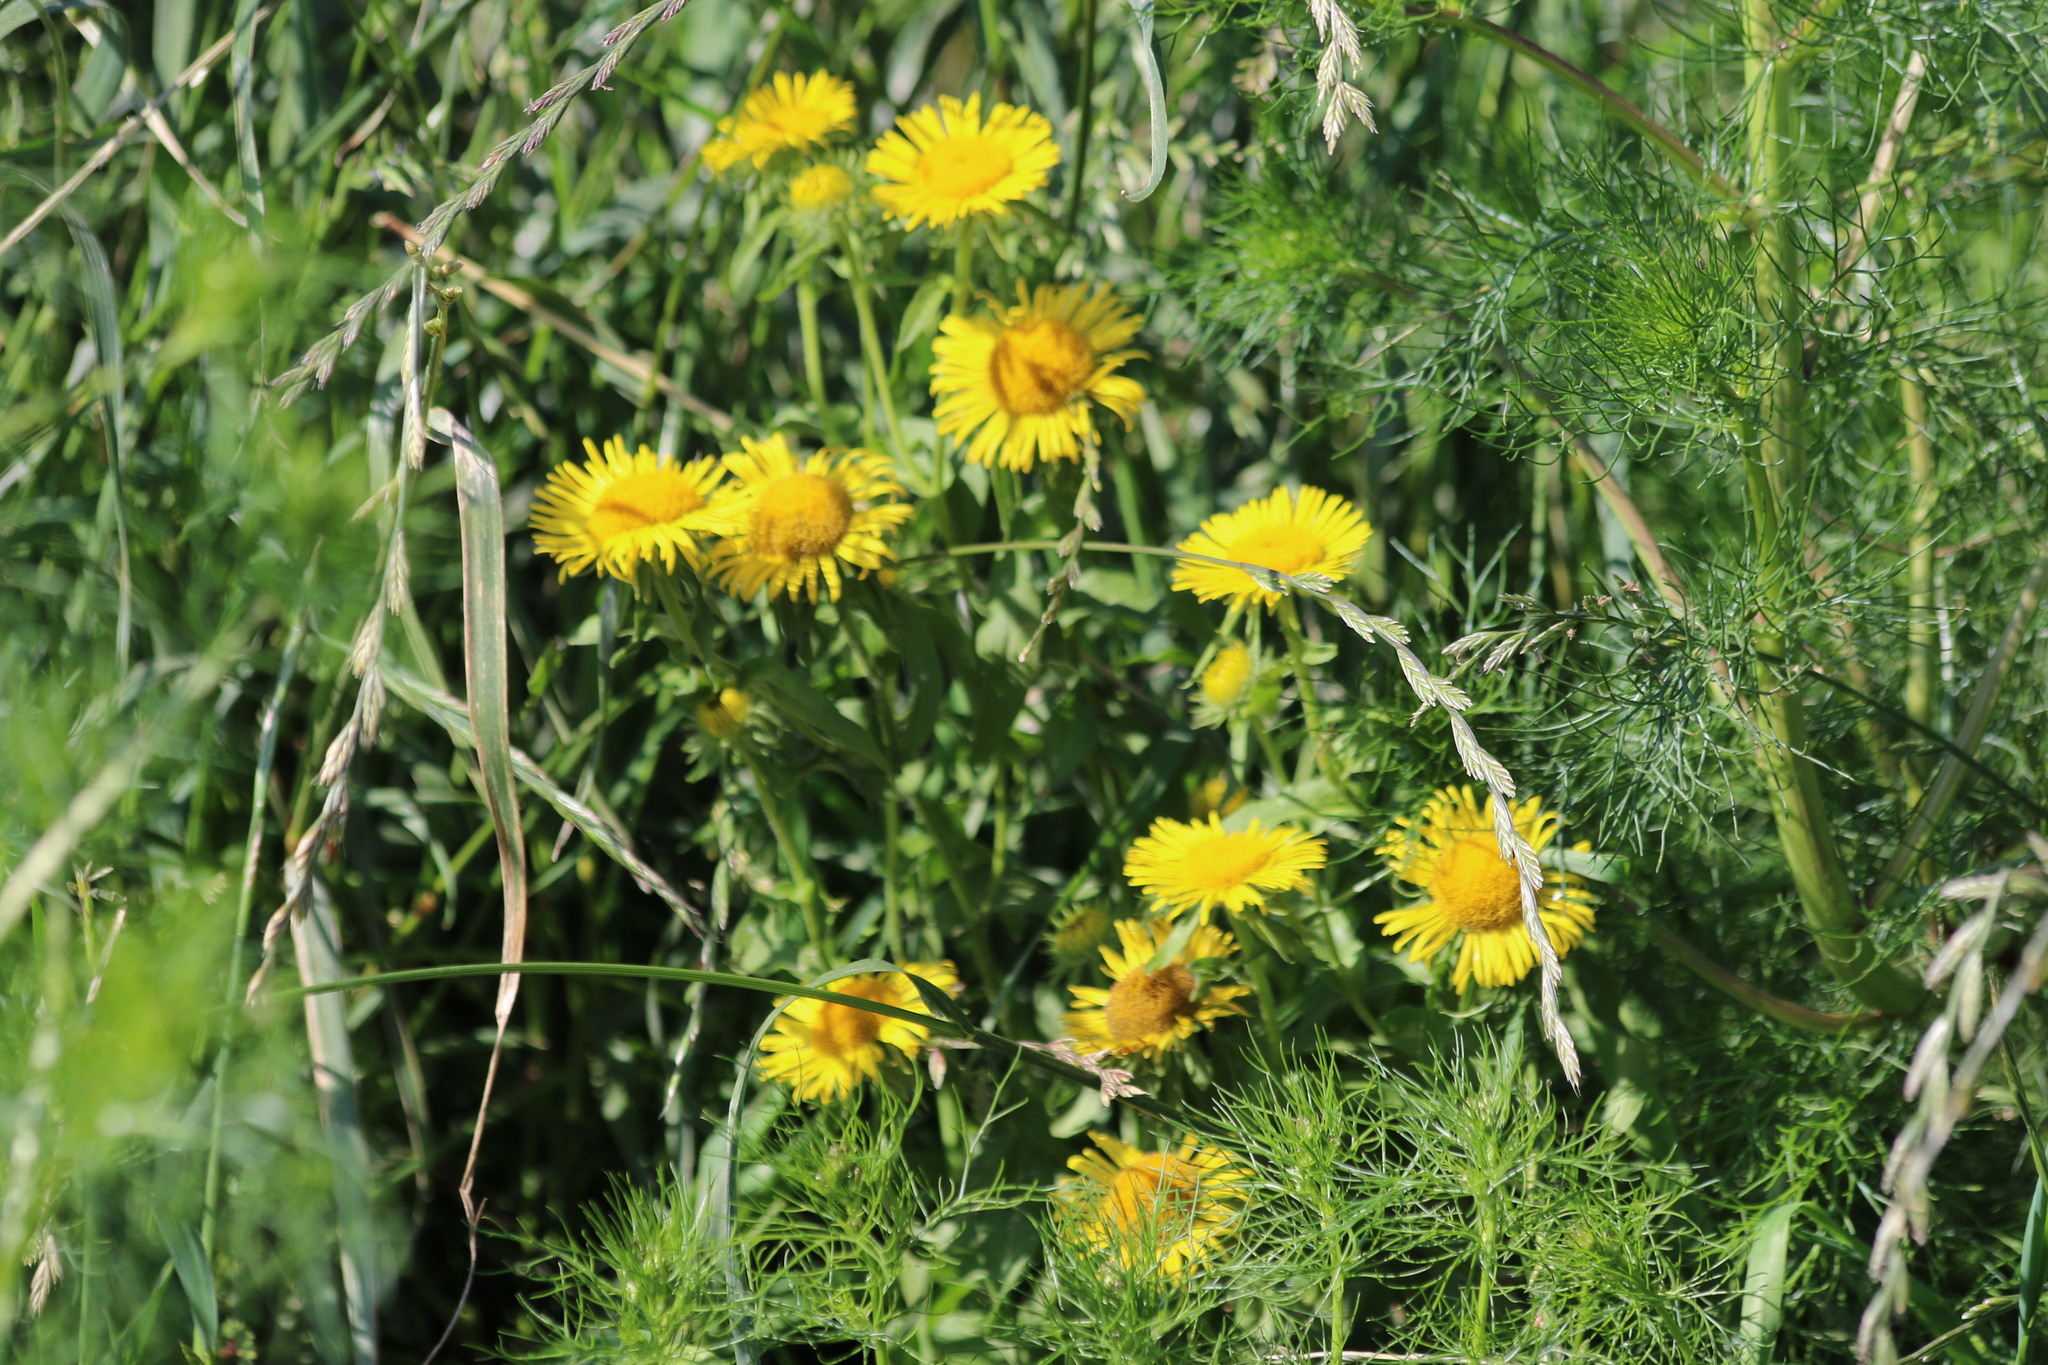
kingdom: Plantae
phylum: Tracheophyta
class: Magnoliopsida
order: Asterales
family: Asteraceae
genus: Pentanema
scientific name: Pentanema britannicum
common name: British elecampane
